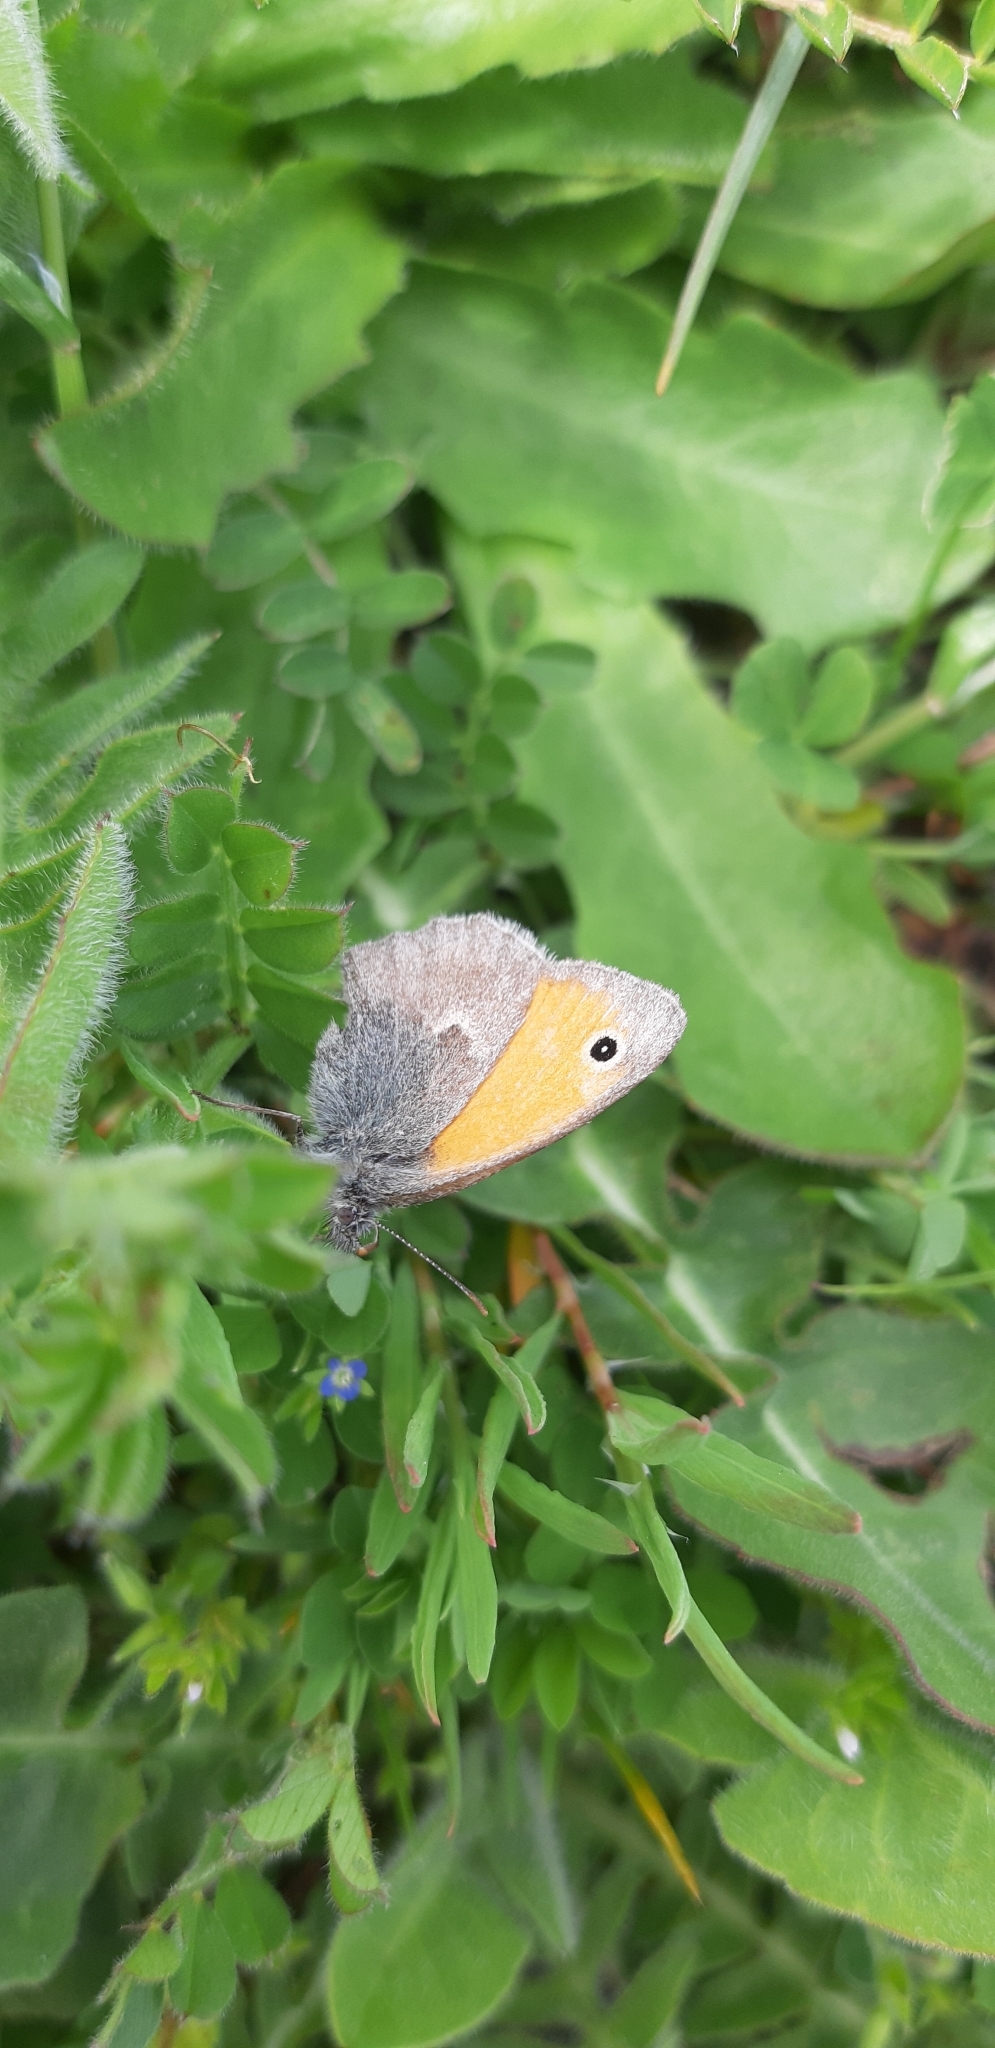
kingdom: Animalia
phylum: Arthropoda
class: Insecta
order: Lepidoptera
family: Nymphalidae
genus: Coenonympha
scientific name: Coenonympha pamphilus
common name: Small heath
